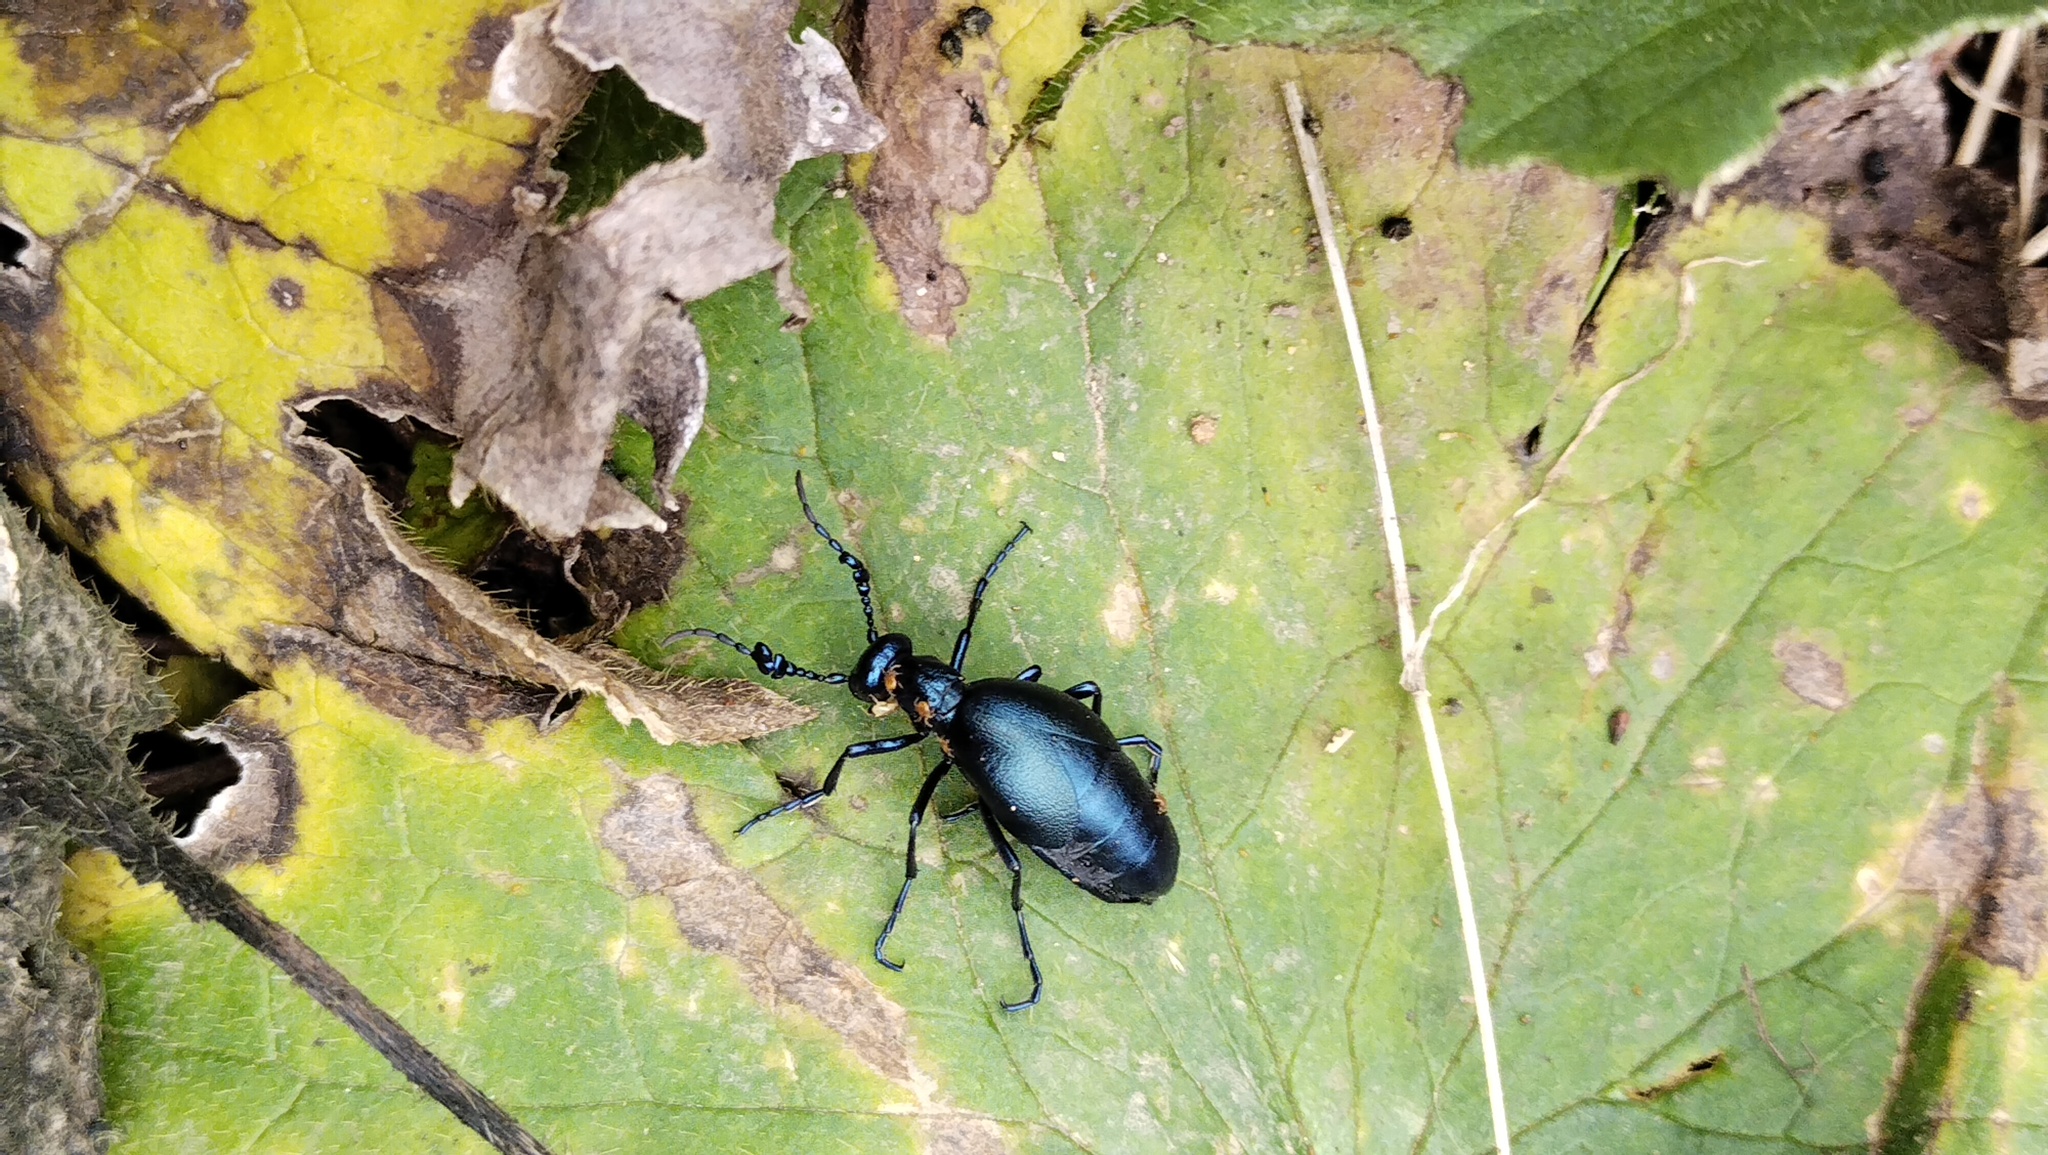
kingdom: Animalia
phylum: Arthropoda
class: Insecta
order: Coleoptera
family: Meloidae
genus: Meloe
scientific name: Meloe
